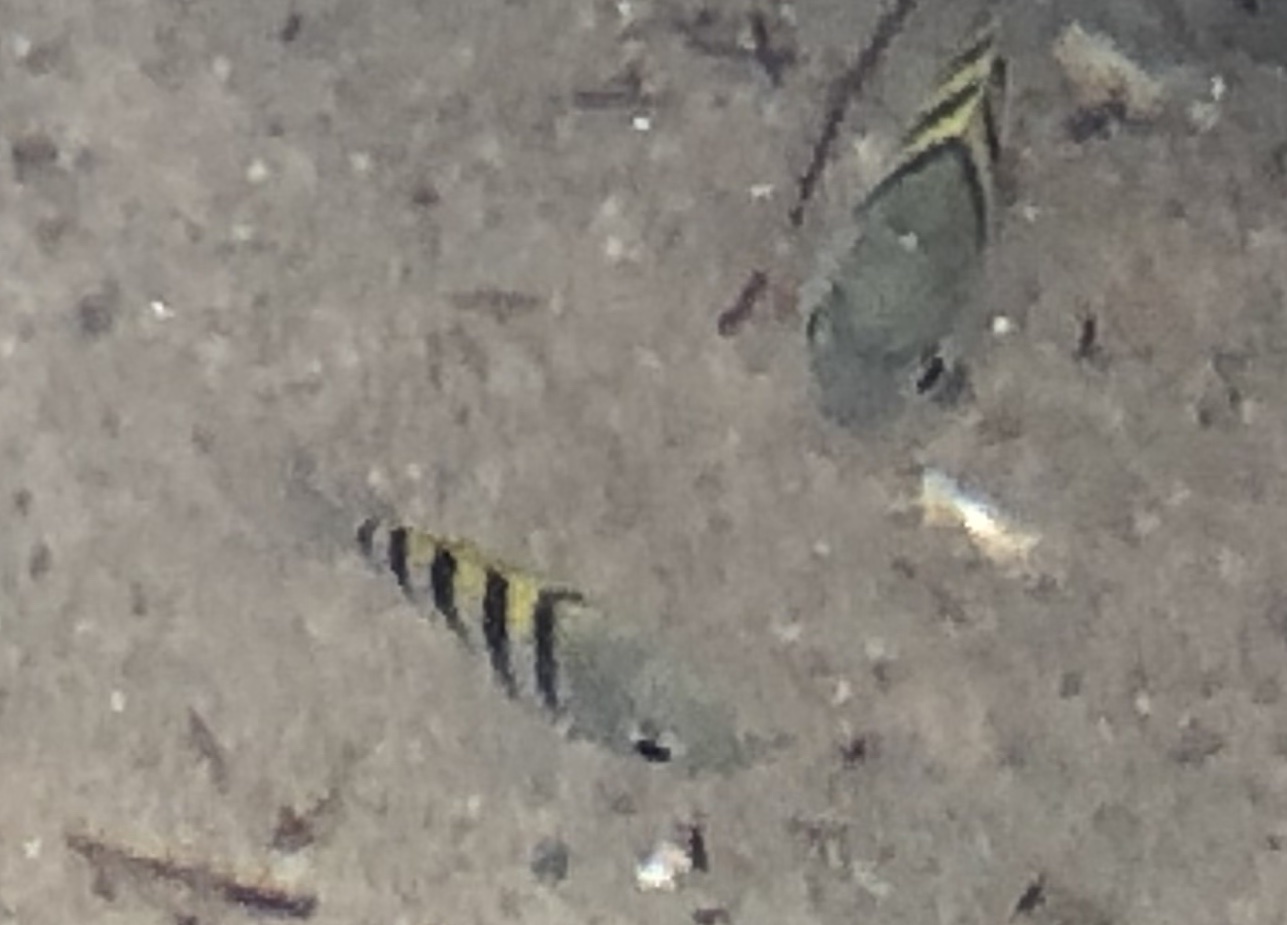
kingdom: Animalia
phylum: Chordata
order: Perciformes
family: Pomacentridae
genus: Abudefduf
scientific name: Abudefduf saxatilis
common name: Sergeant major
